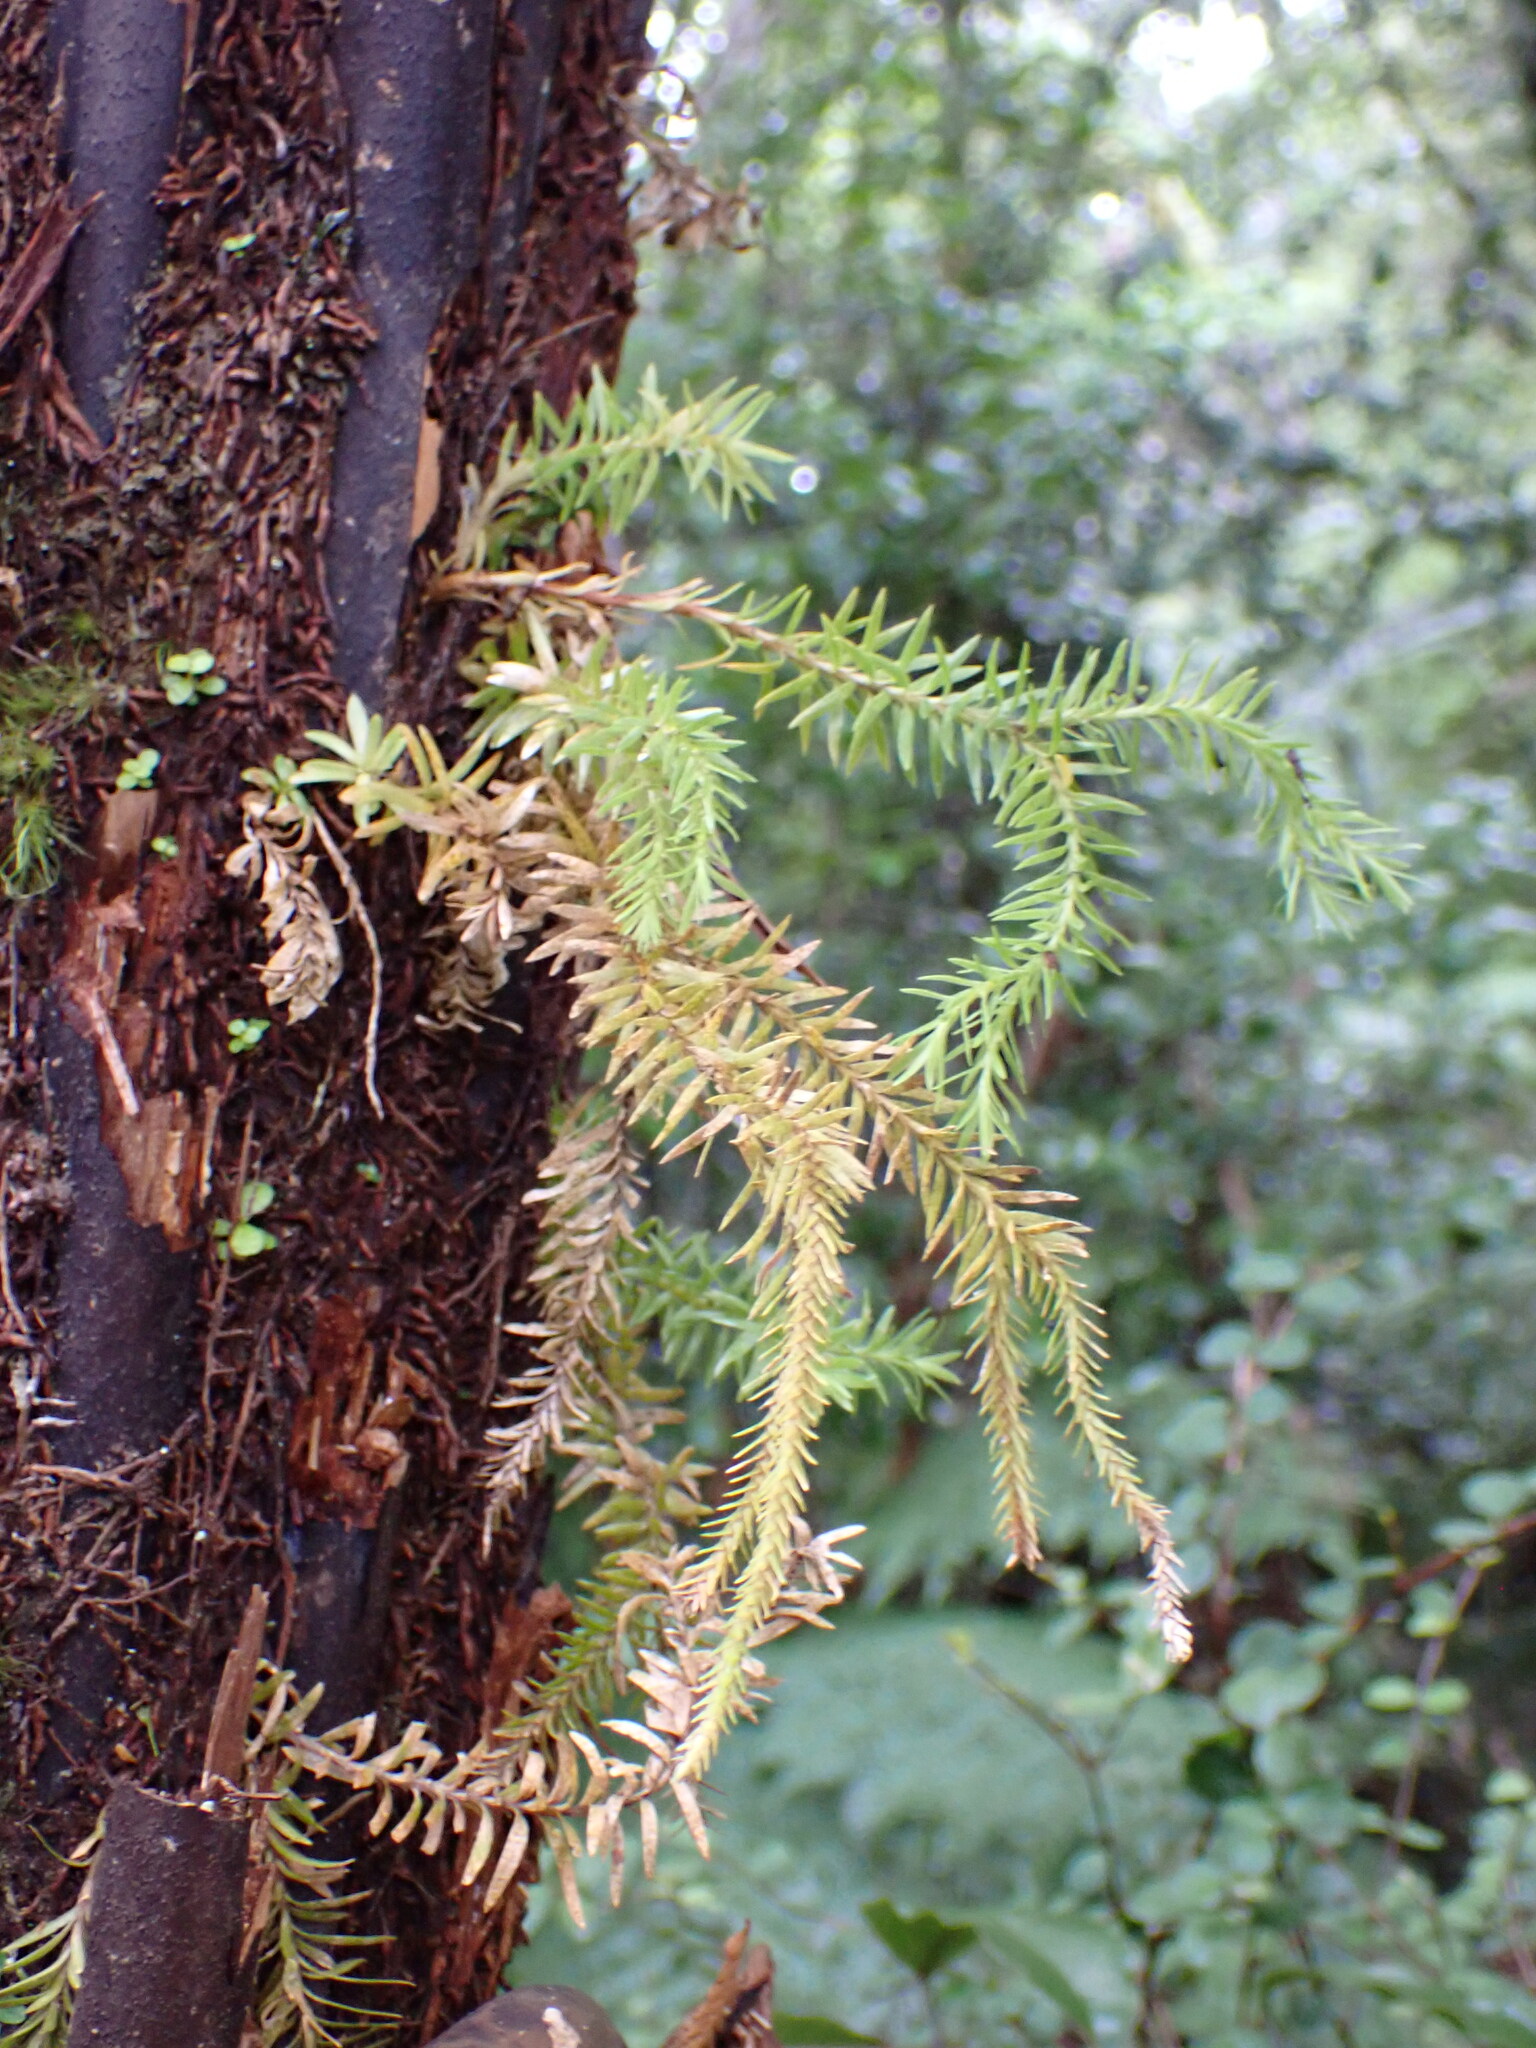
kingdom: Plantae
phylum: Tracheophyta
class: Lycopodiopsida
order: Lycopodiales
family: Lycopodiaceae
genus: Phlegmariurus
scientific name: Phlegmariurus varius
